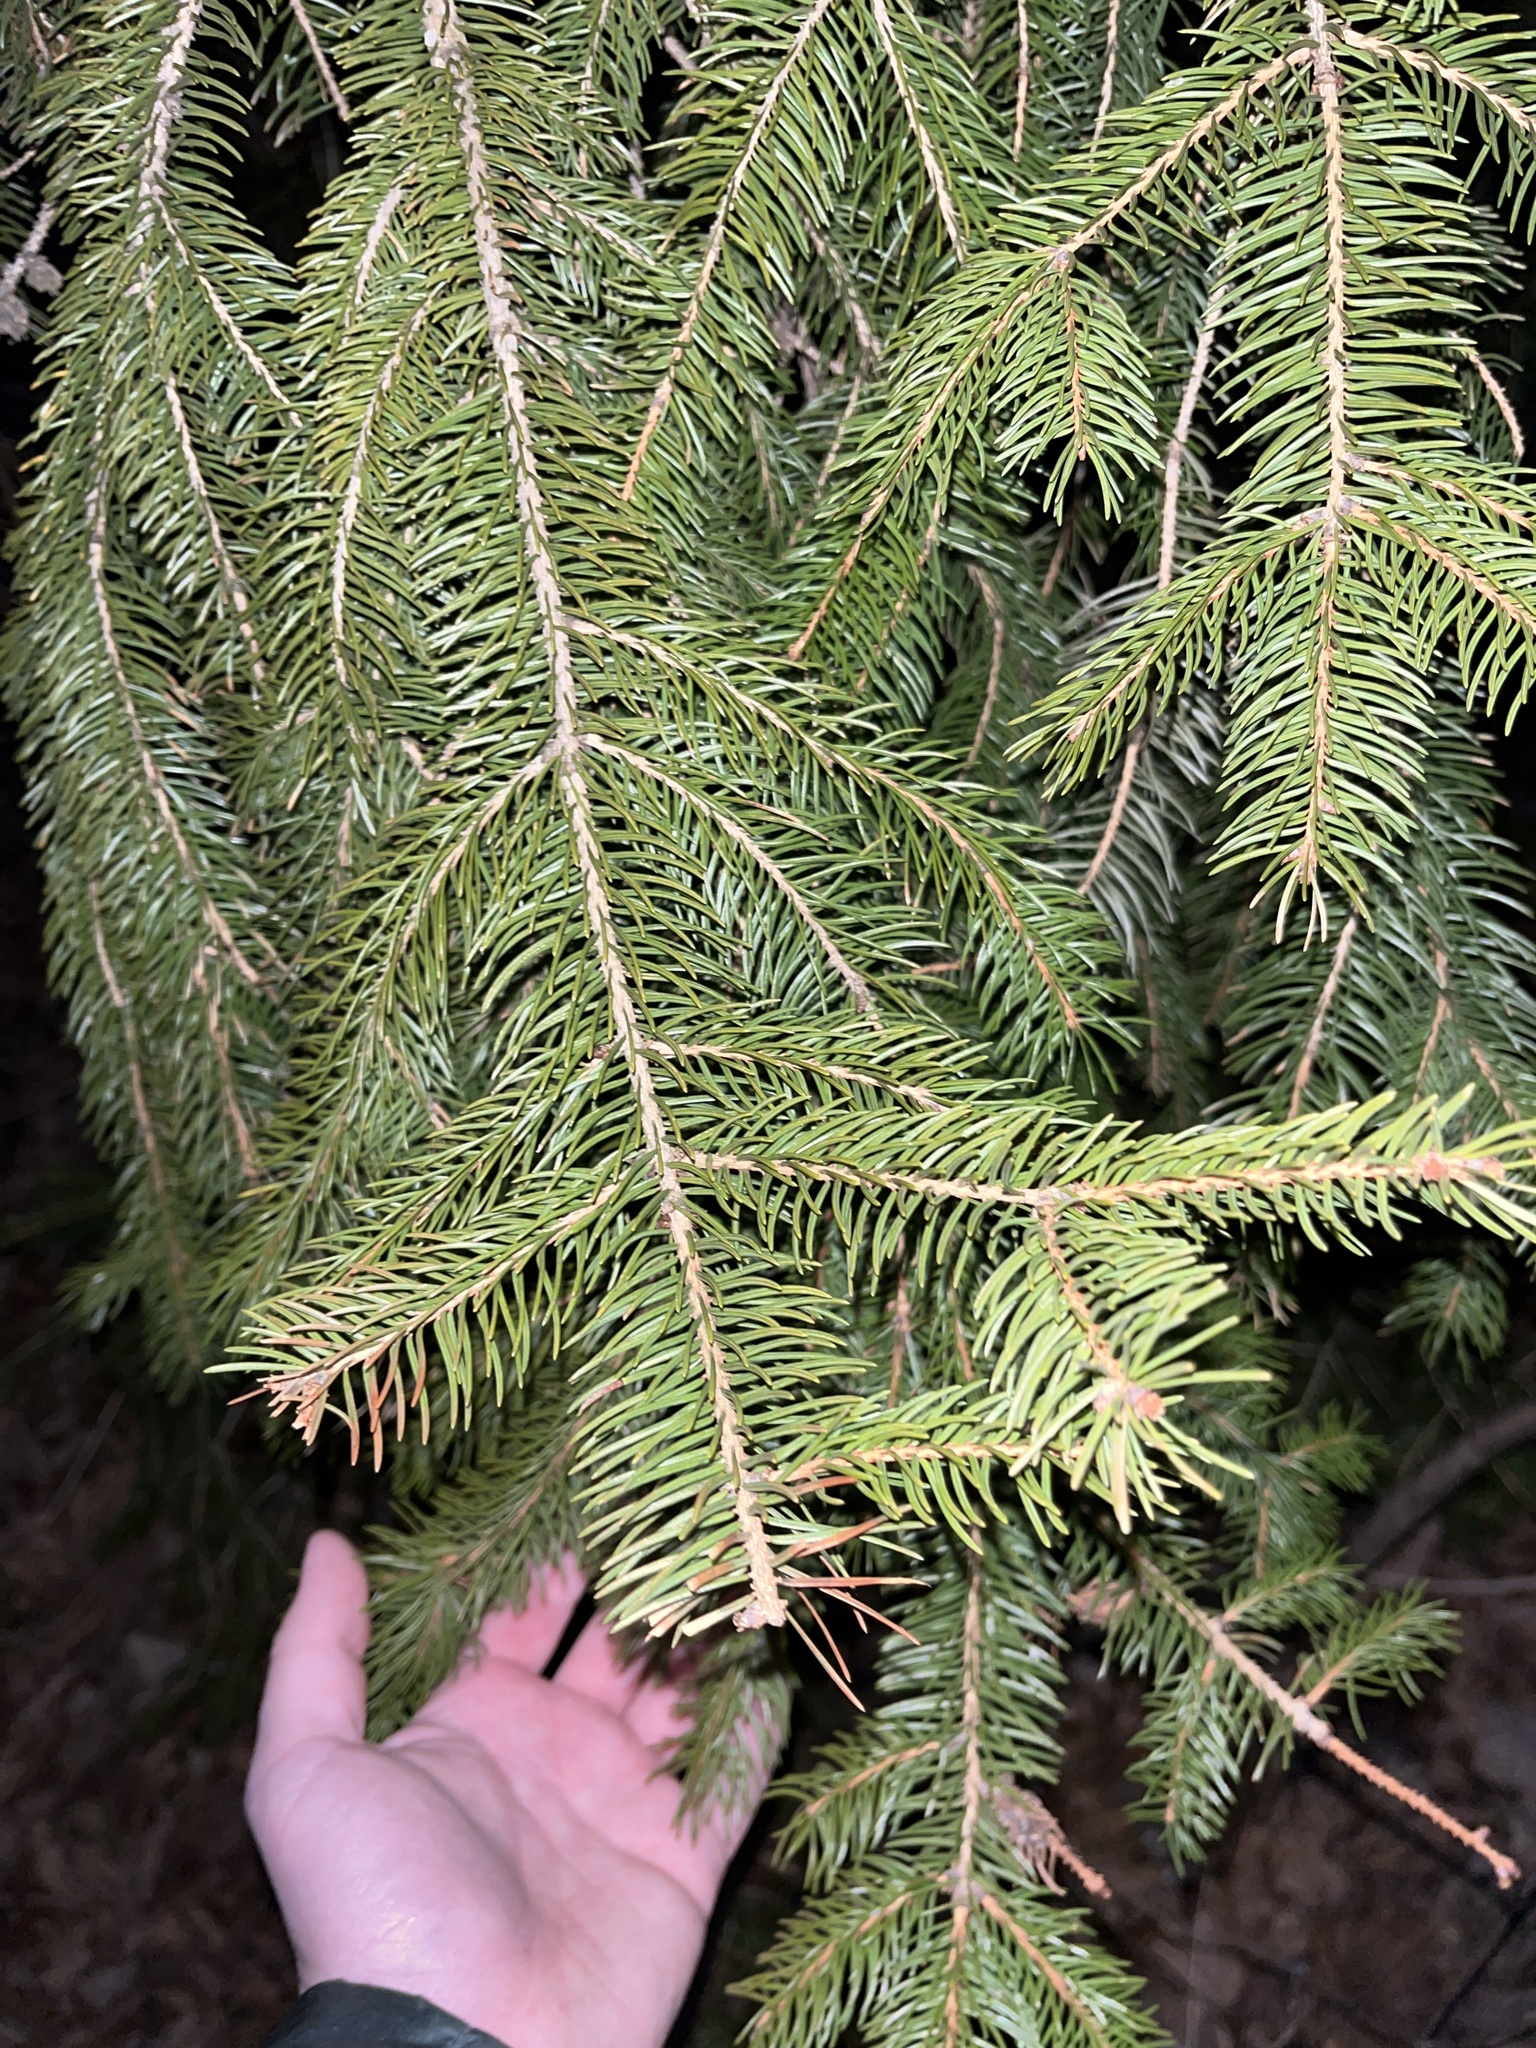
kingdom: Plantae
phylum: Tracheophyta
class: Pinopsida
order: Pinales
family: Pinaceae
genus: Picea
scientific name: Picea
